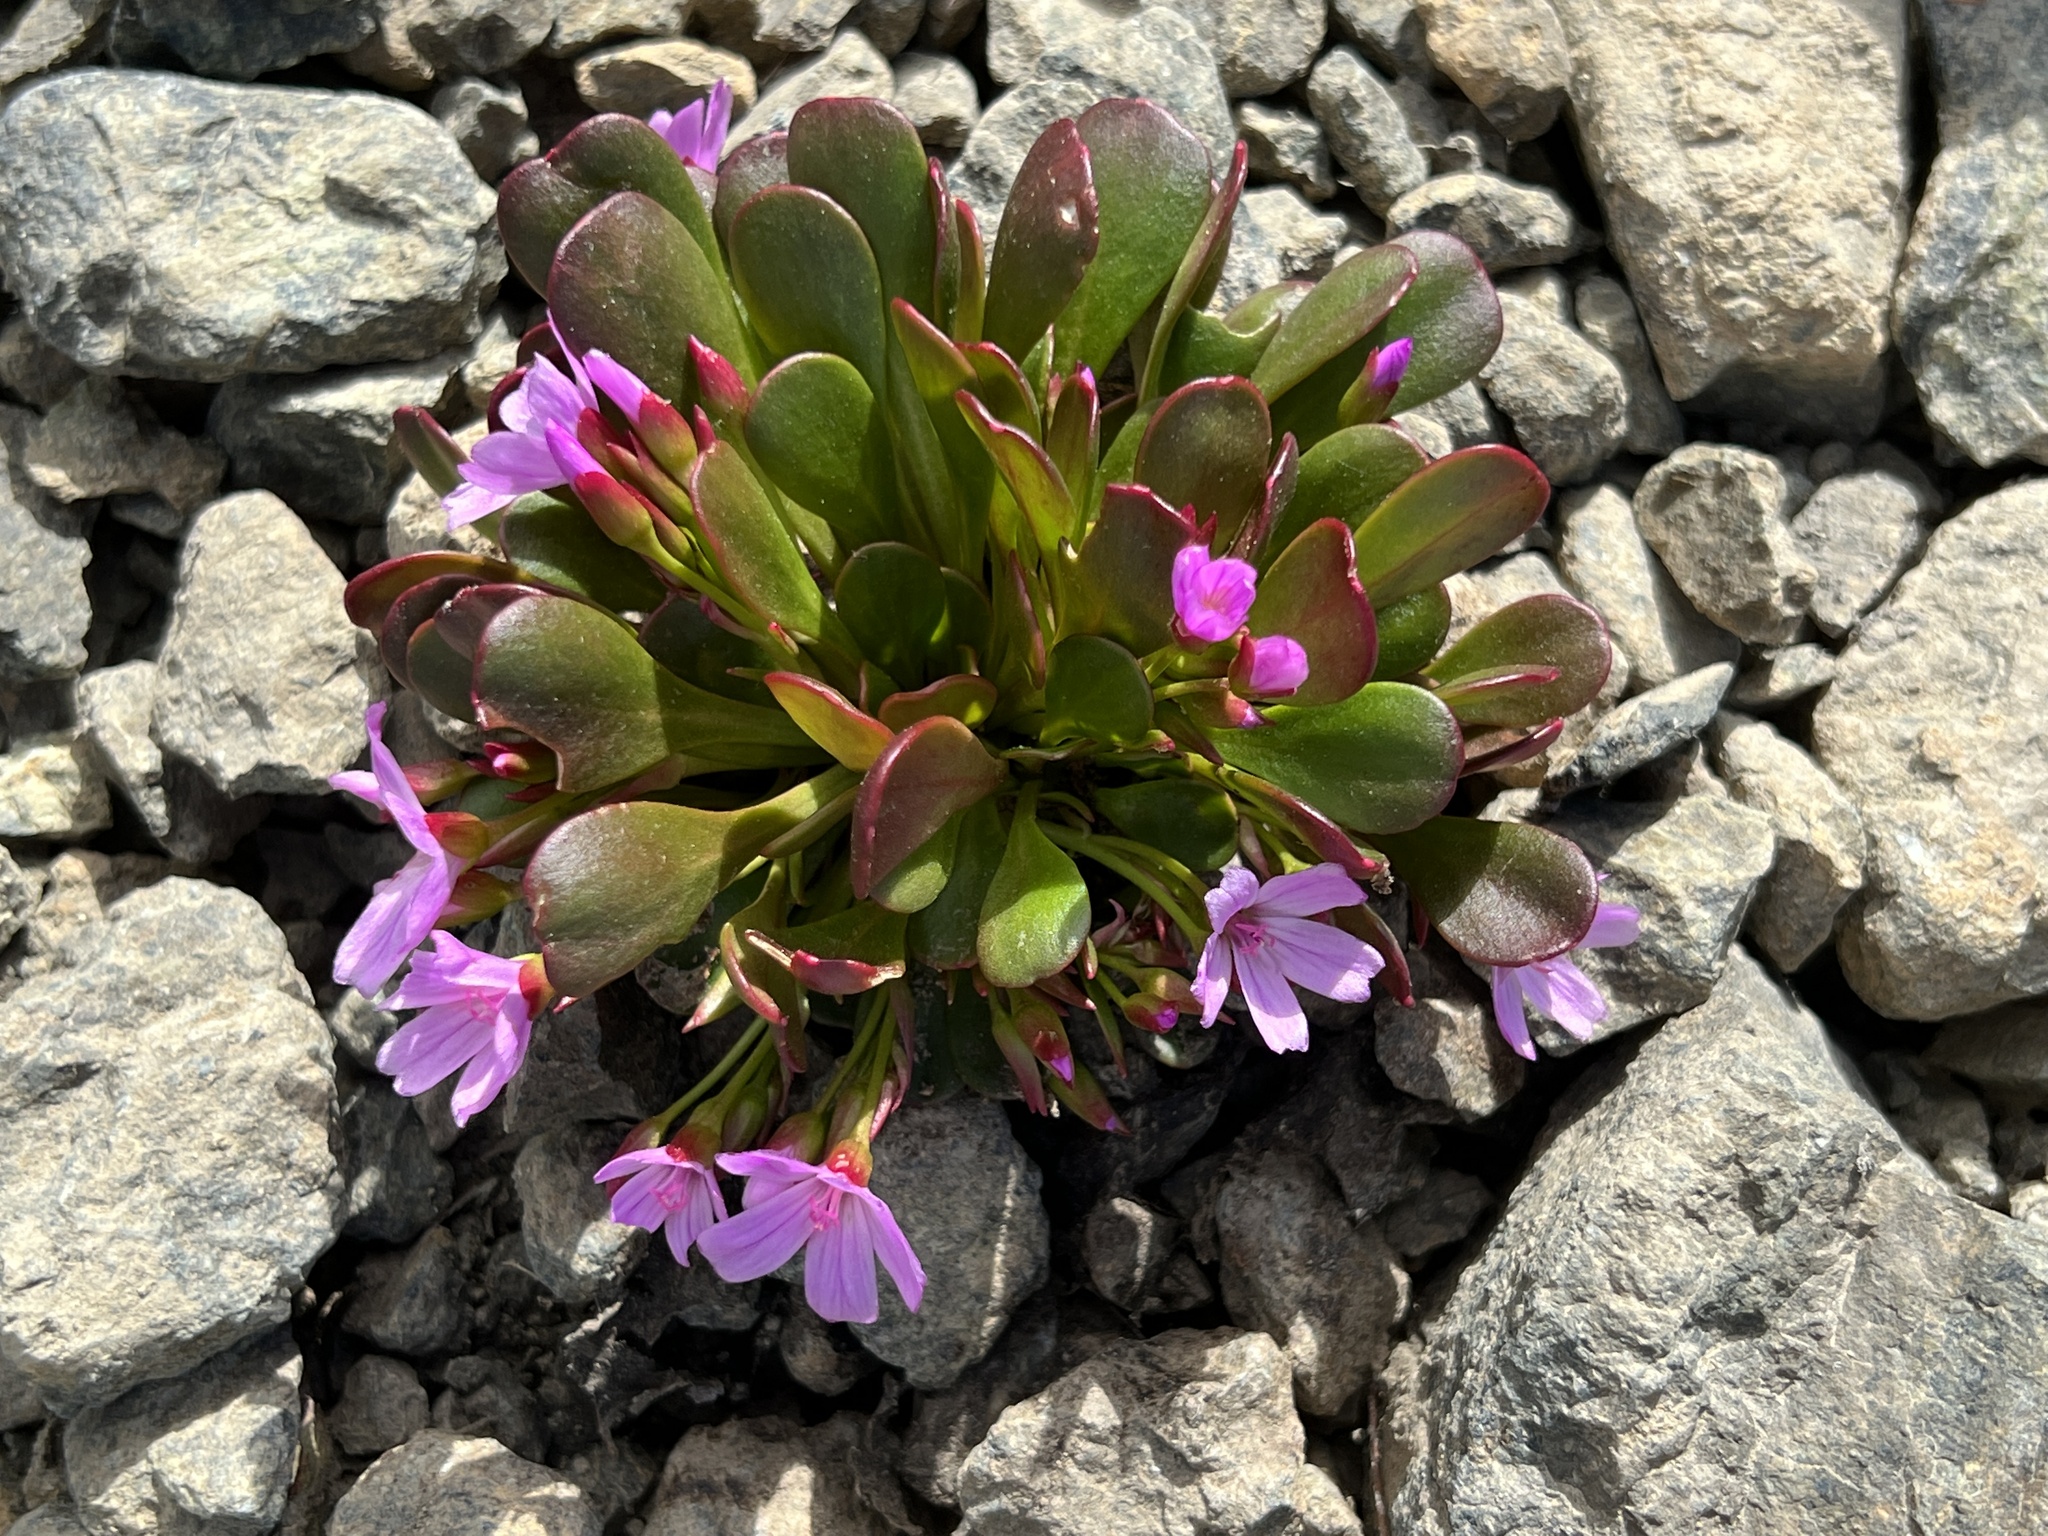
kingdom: Plantae
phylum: Tracheophyta
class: Magnoliopsida
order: Caryophyllales
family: Montiaceae
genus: Claytonia
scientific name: Claytonia megarhiza
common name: Alpine spring beauty
